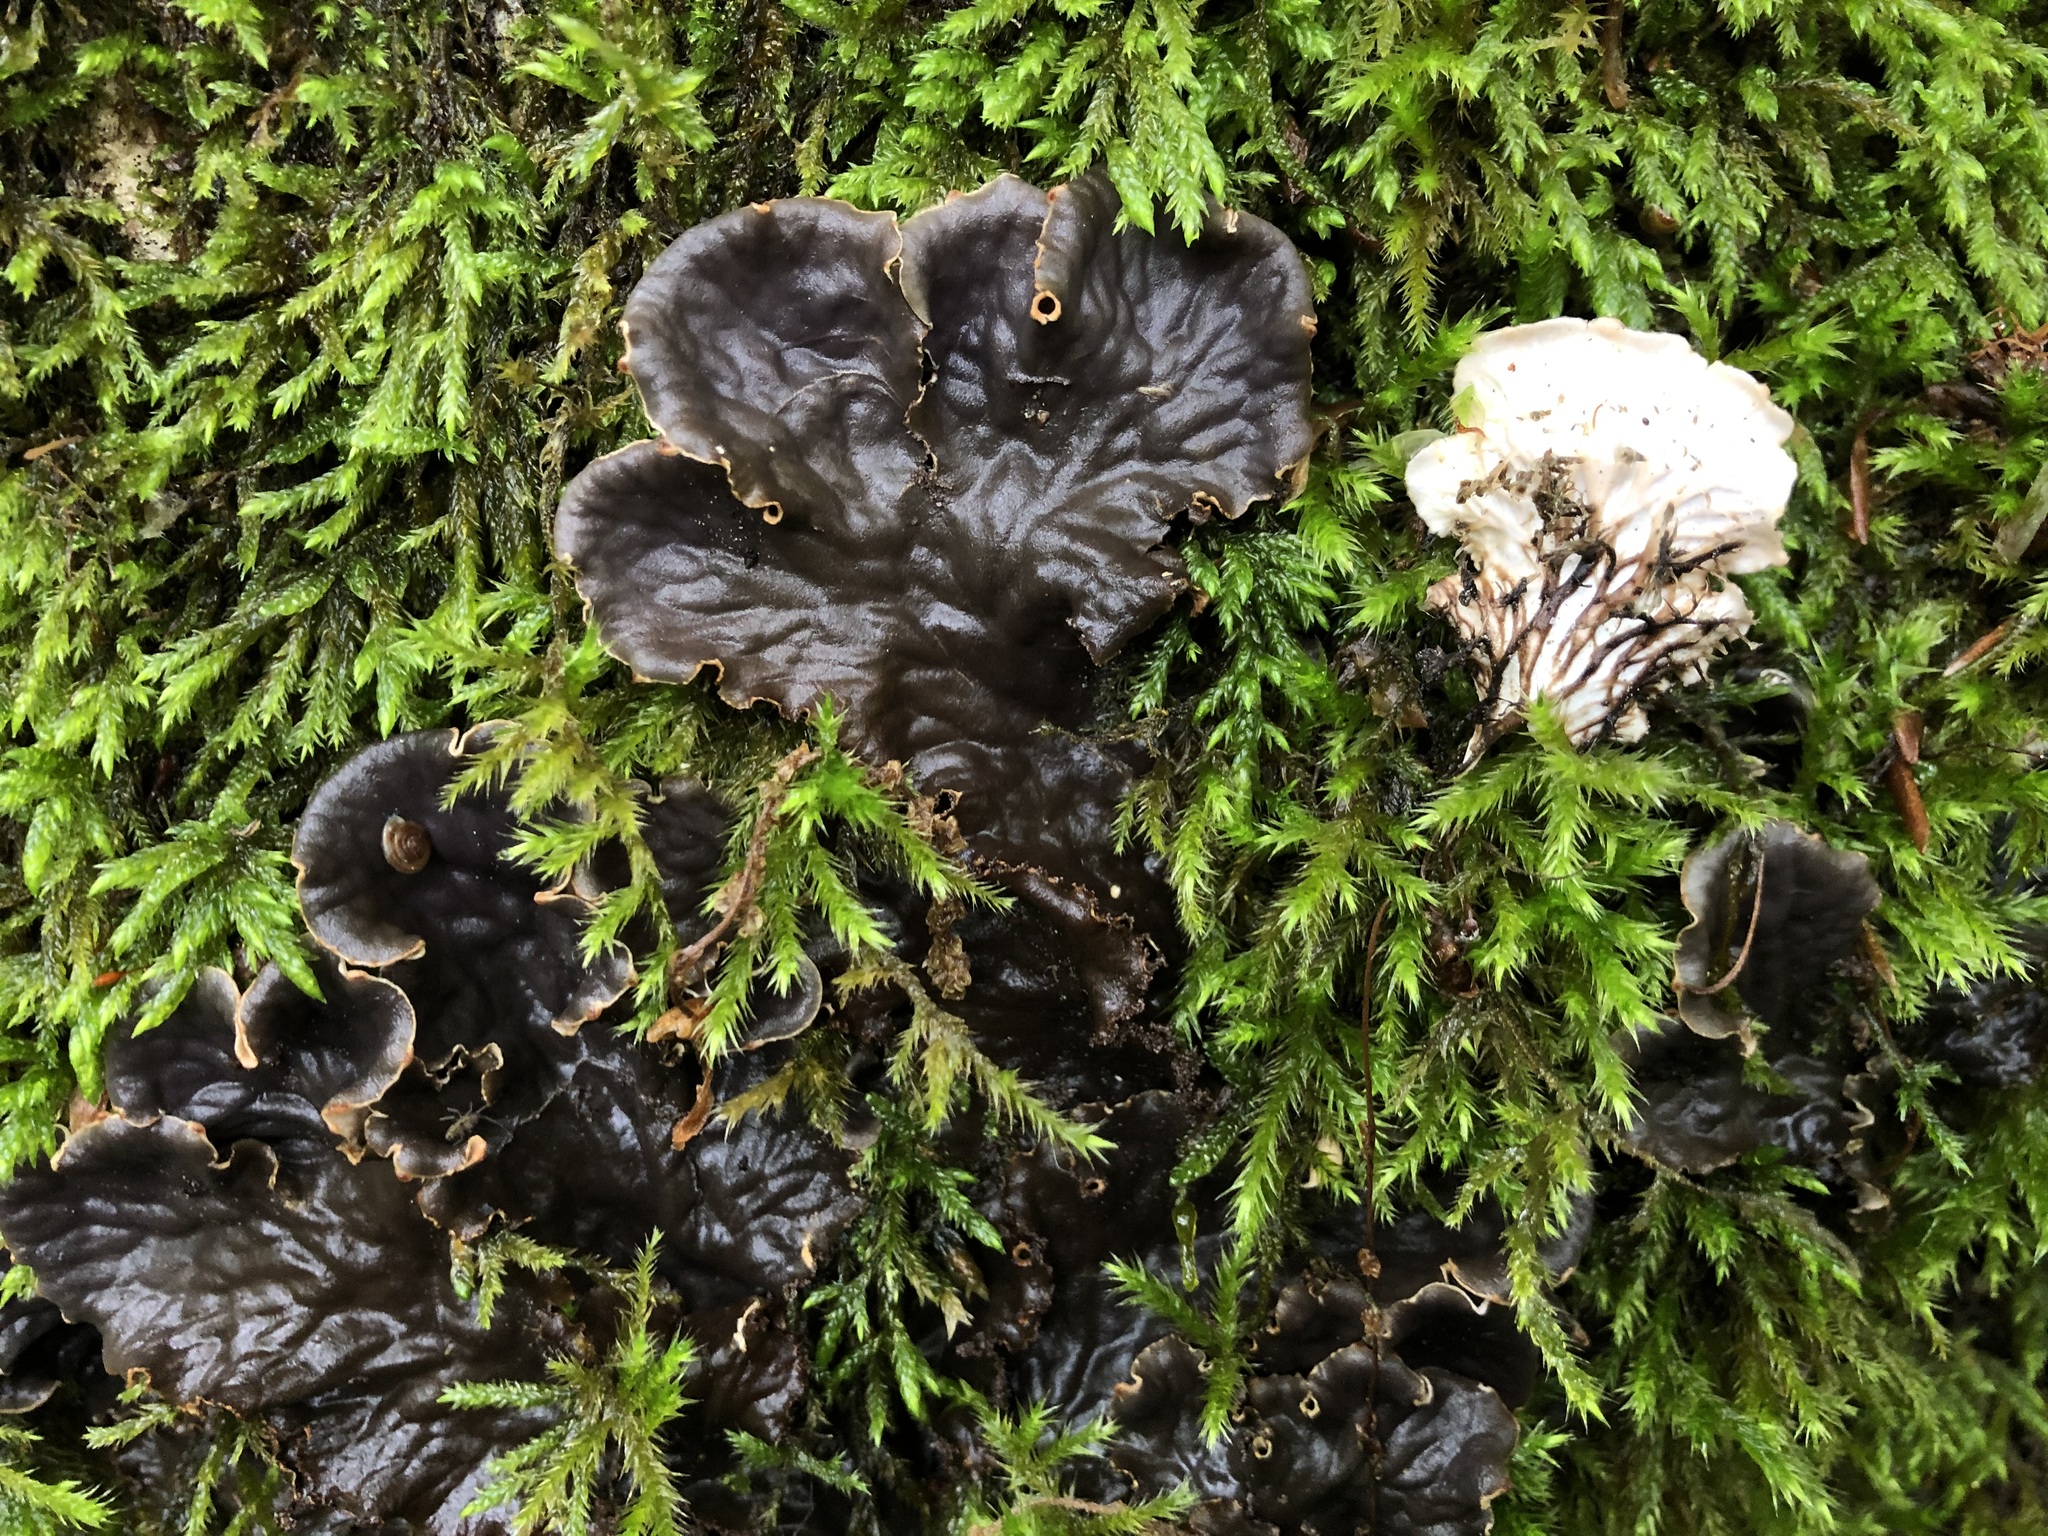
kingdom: Fungi
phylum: Ascomycota
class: Lecanoromycetes
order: Peltigerales
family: Peltigeraceae
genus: Peltigera
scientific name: Peltigera praetextata
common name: Scaly dog-lichen
